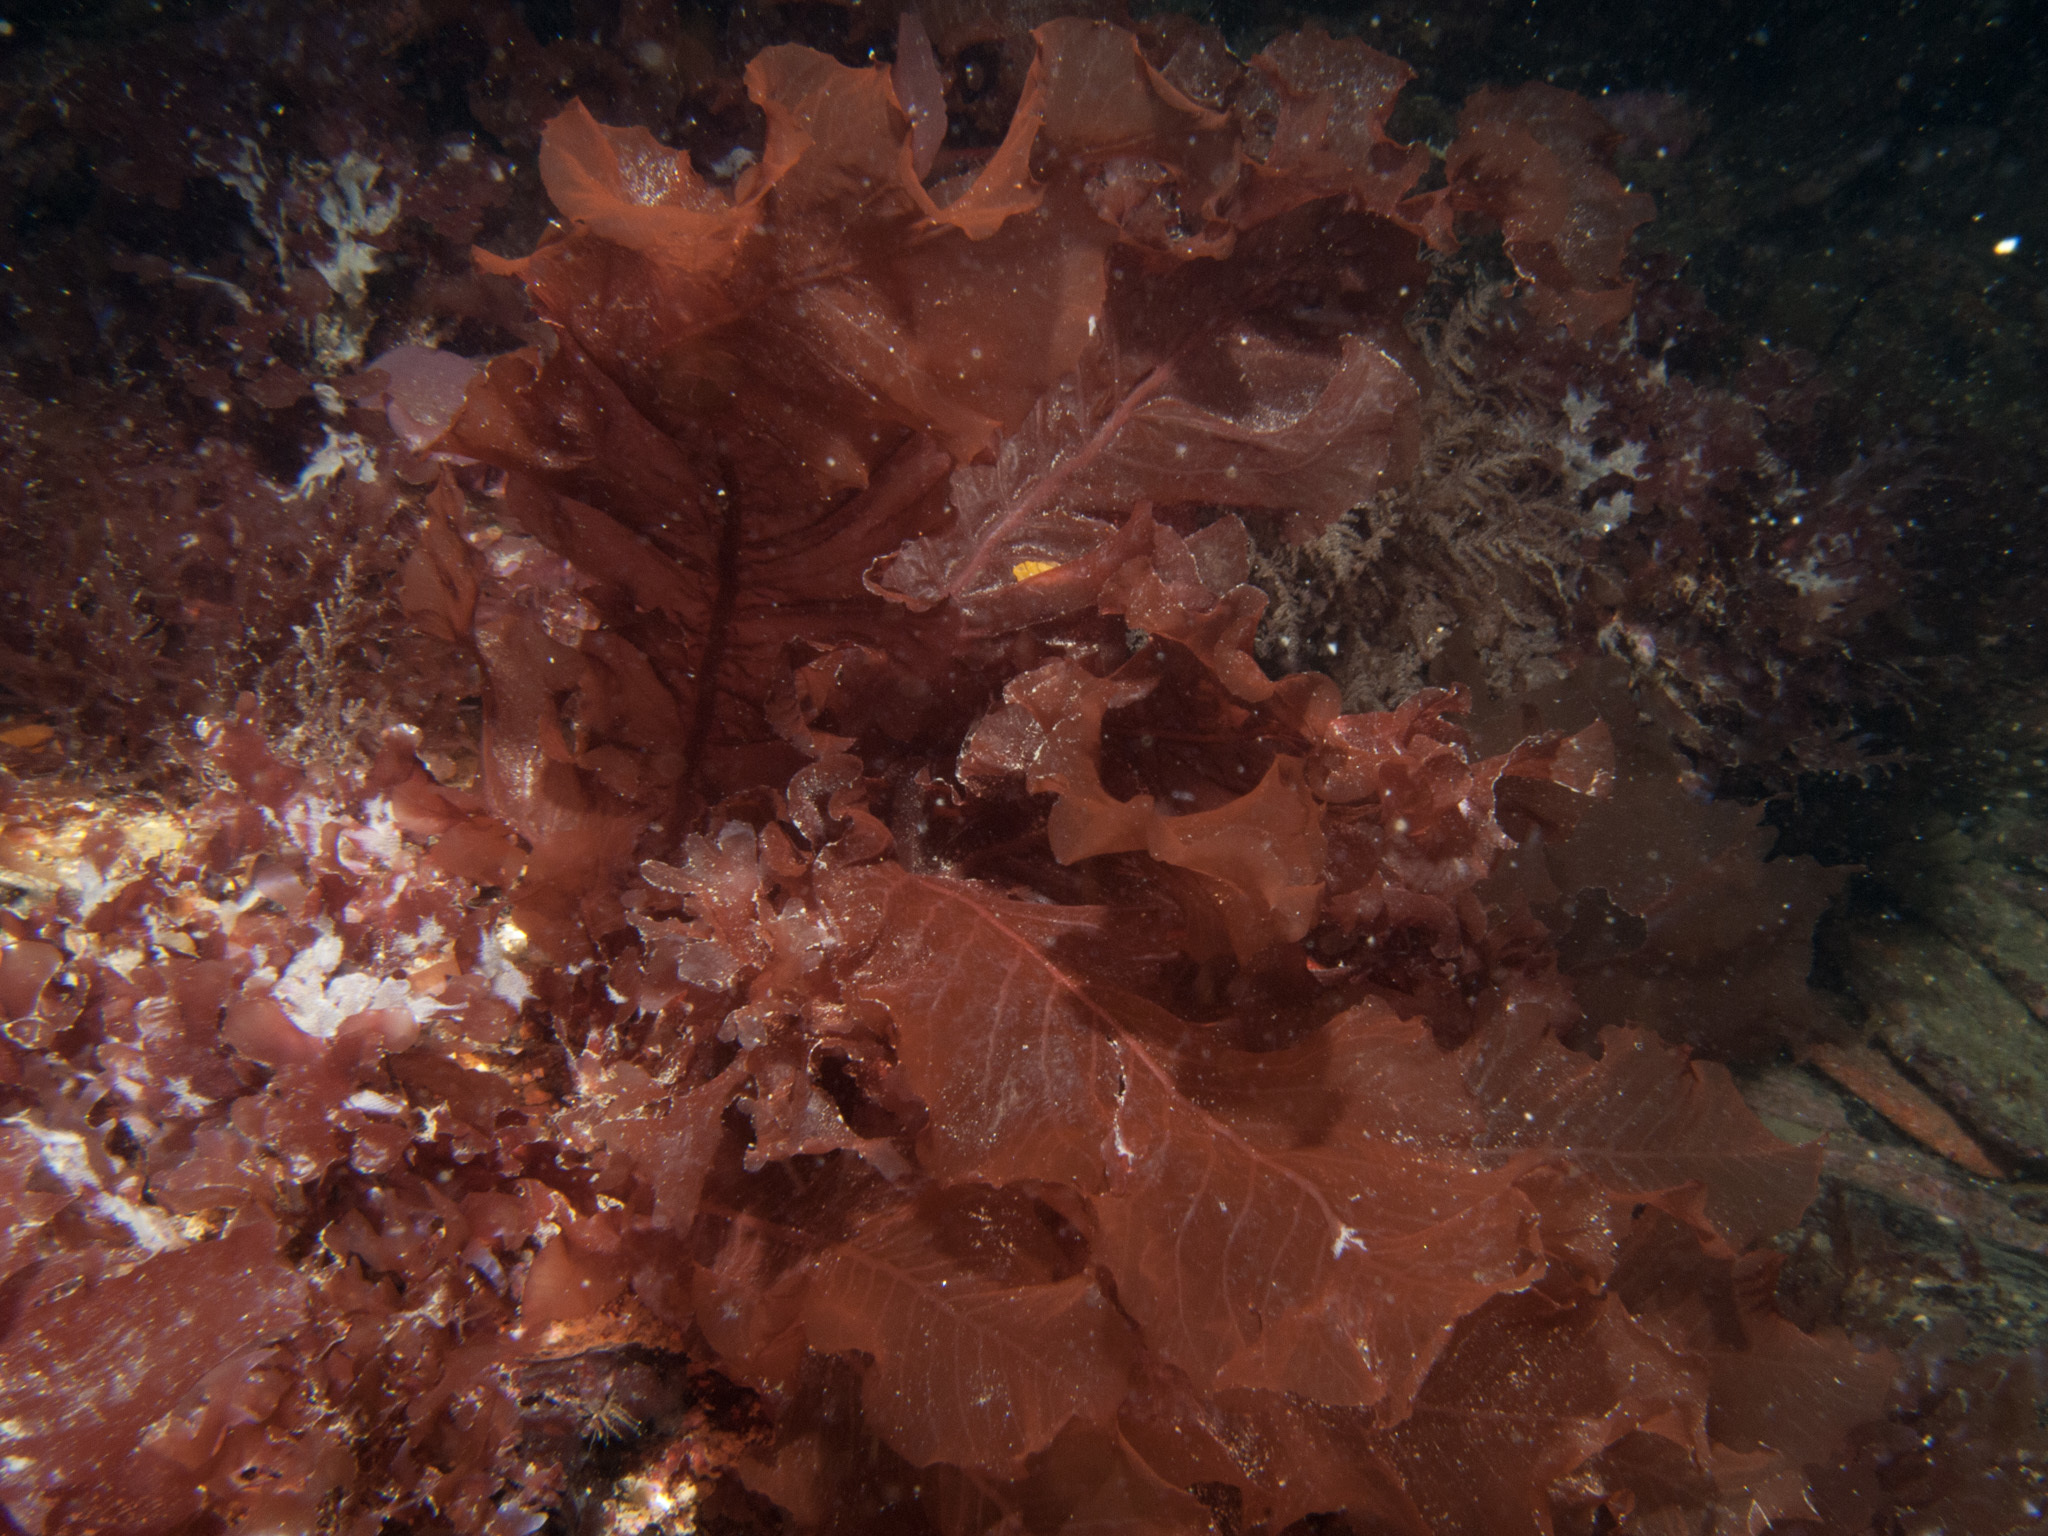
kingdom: Plantae
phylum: Rhodophyta
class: Florideophyceae
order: Ceramiales
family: Delesseriaceae
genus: Delesseria
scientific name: Delesseria sanguinea
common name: Sea beech
